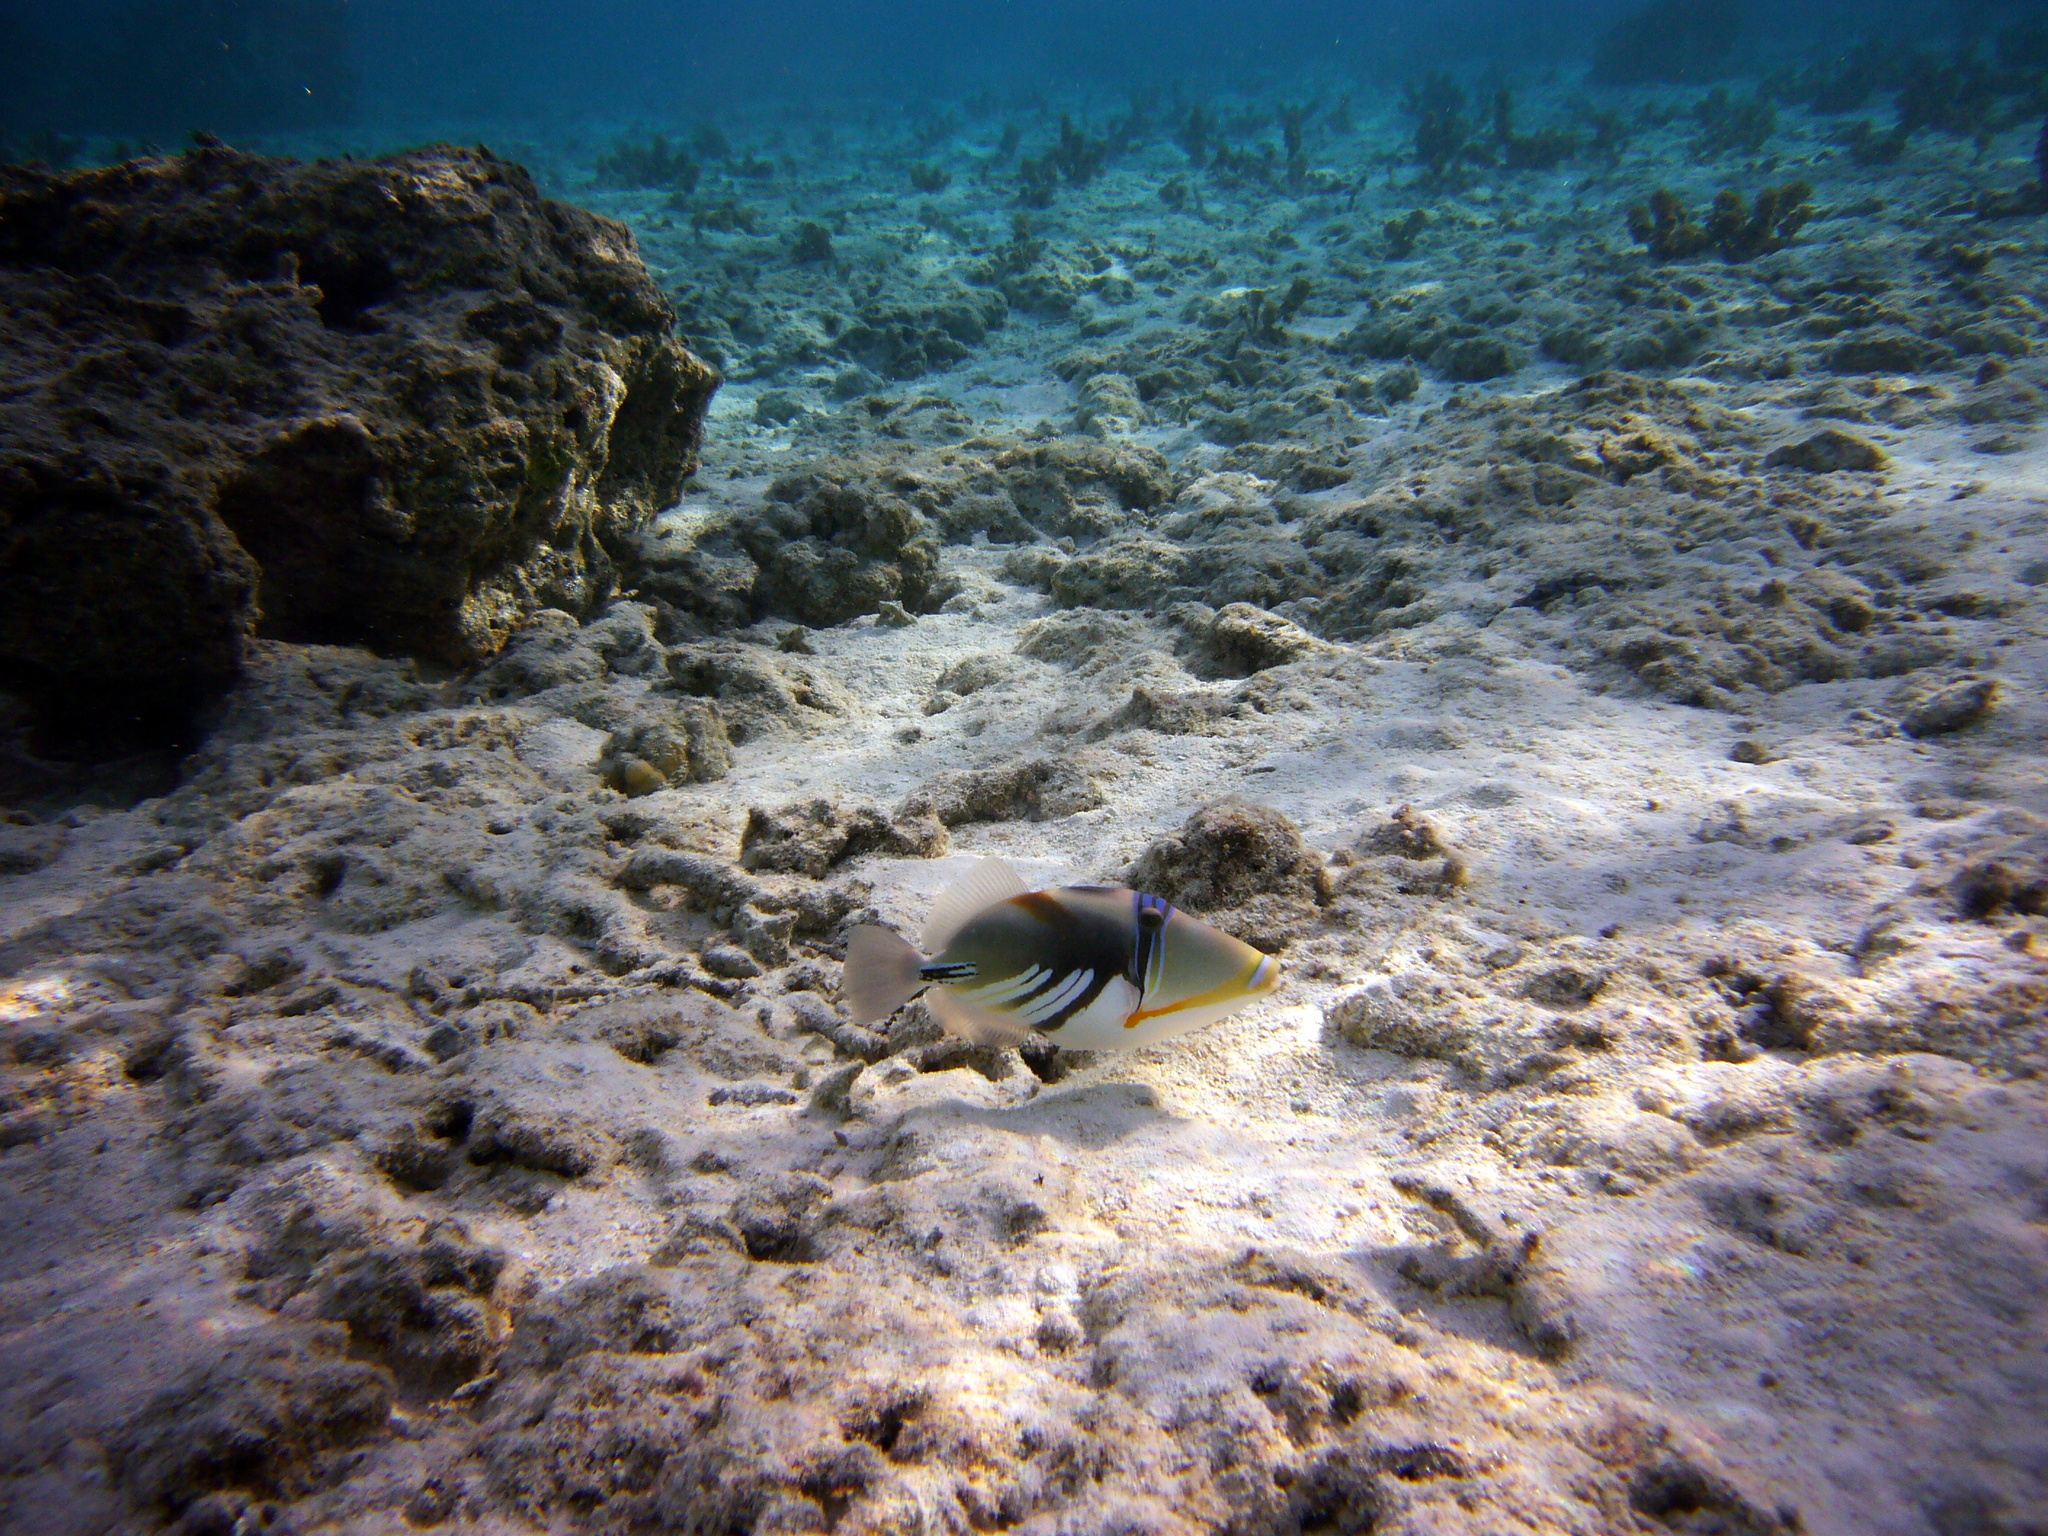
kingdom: Animalia
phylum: Chordata
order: Tetraodontiformes
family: Balistidae
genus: Rhinecanthus
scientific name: Rhinecanthus aculeatus
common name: White-banded triggerfish
